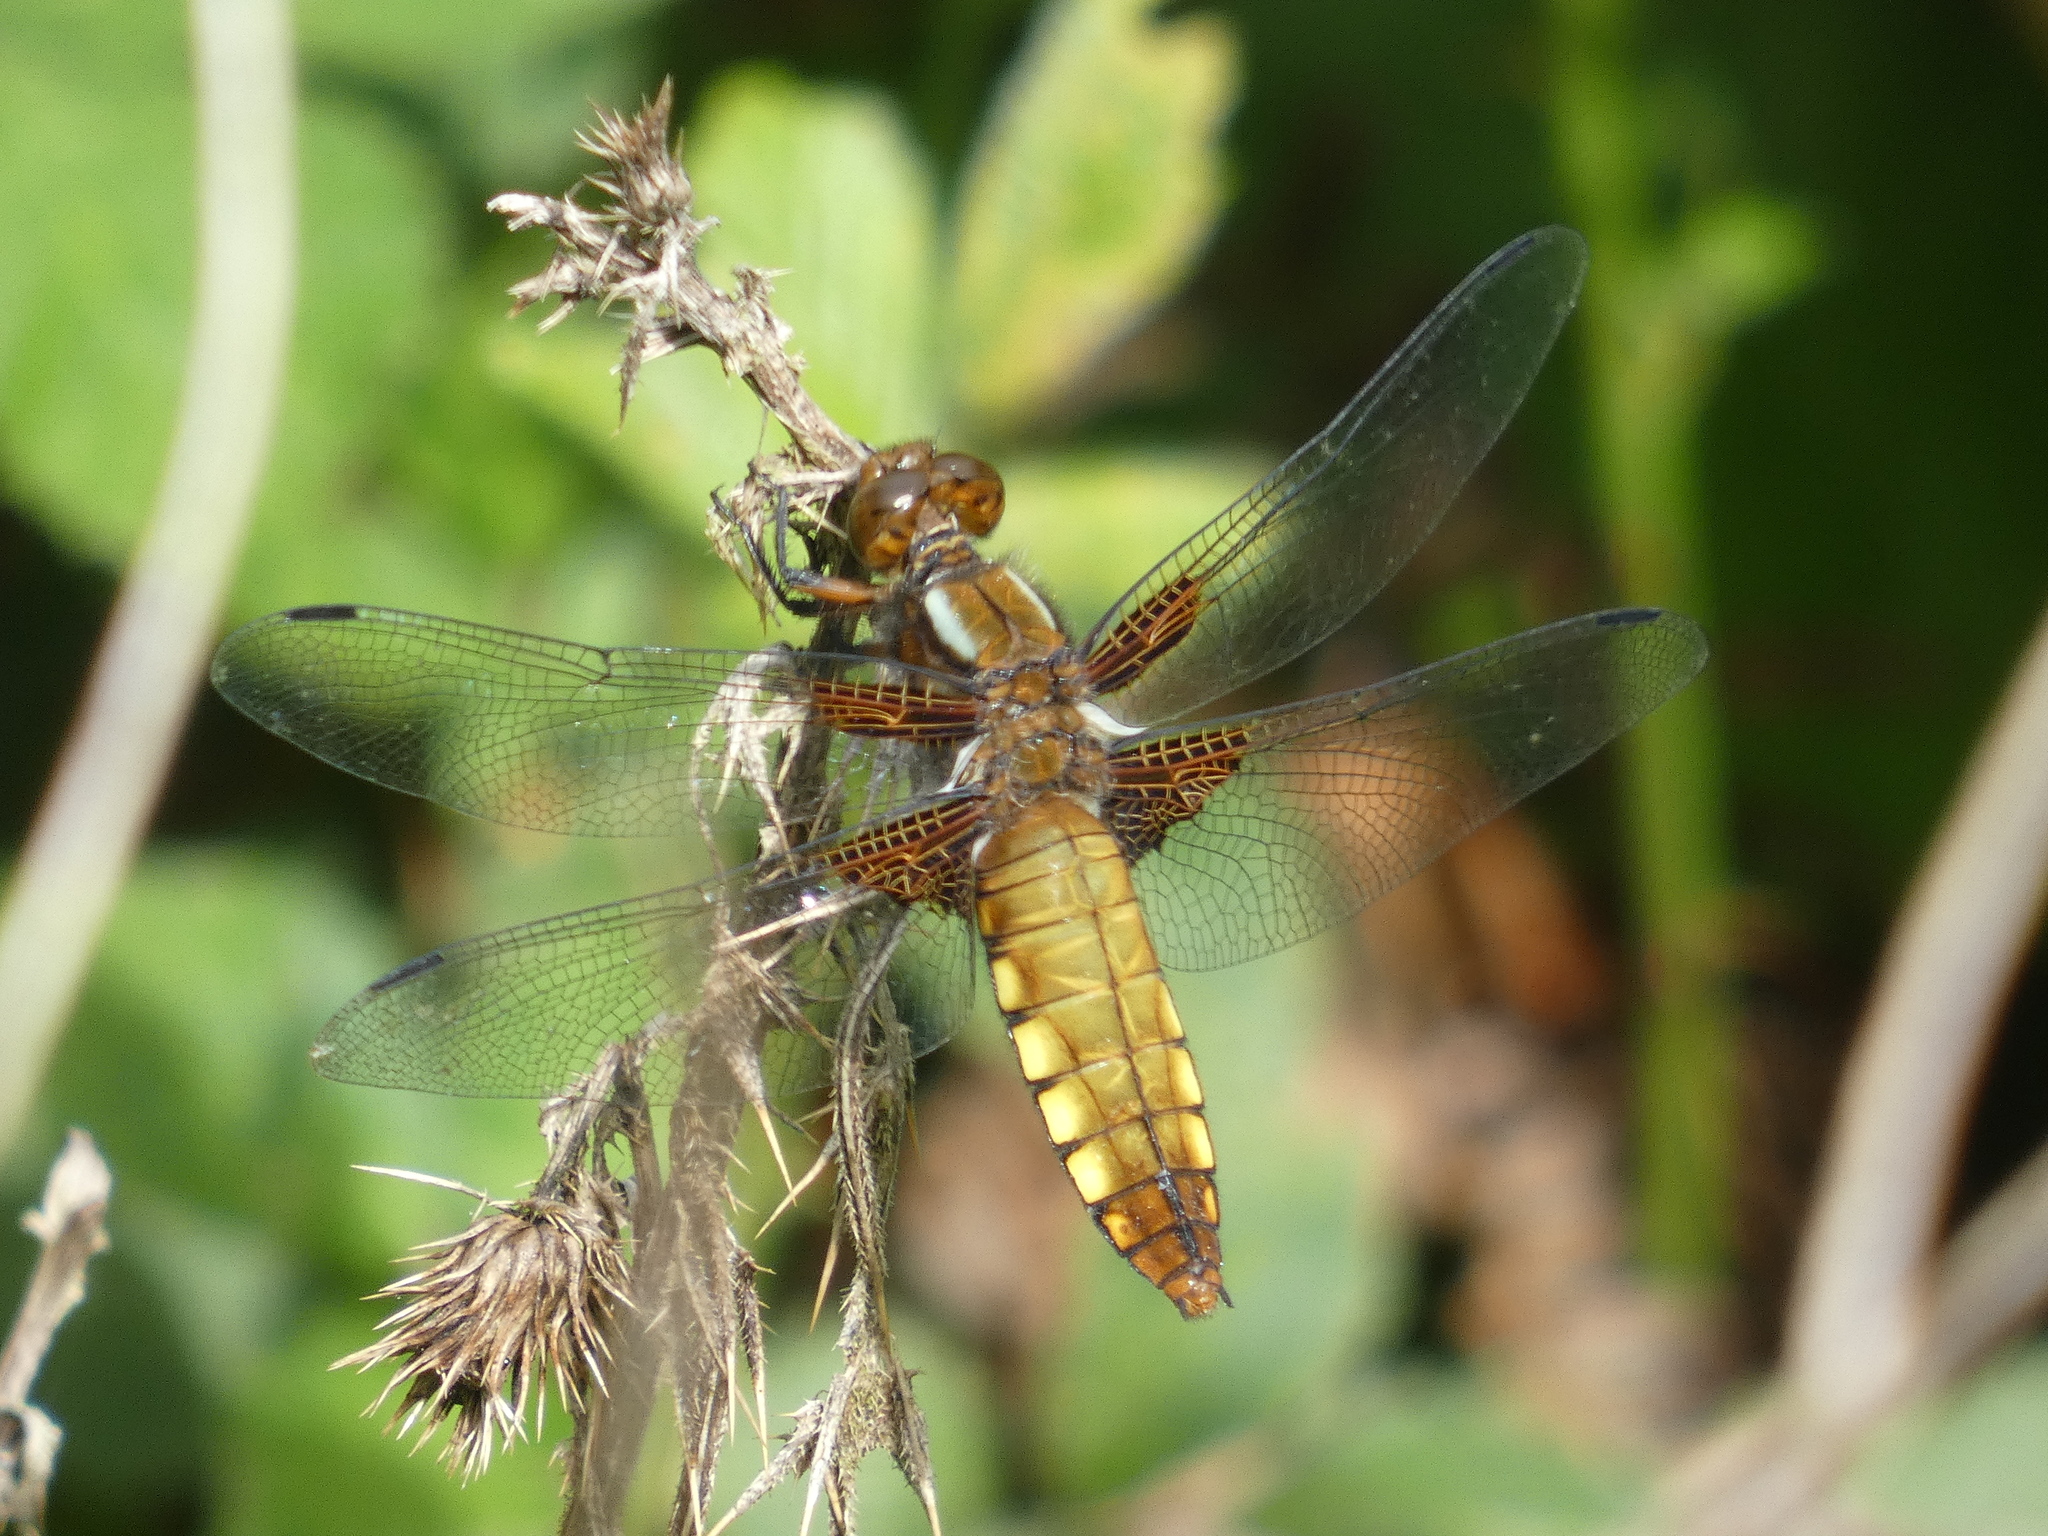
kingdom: Animalia
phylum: Arthropoda
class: Insecta
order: Odonata
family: Libellulidae
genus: Libellula
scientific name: Libellula depressa
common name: Broad-bodied chaser
